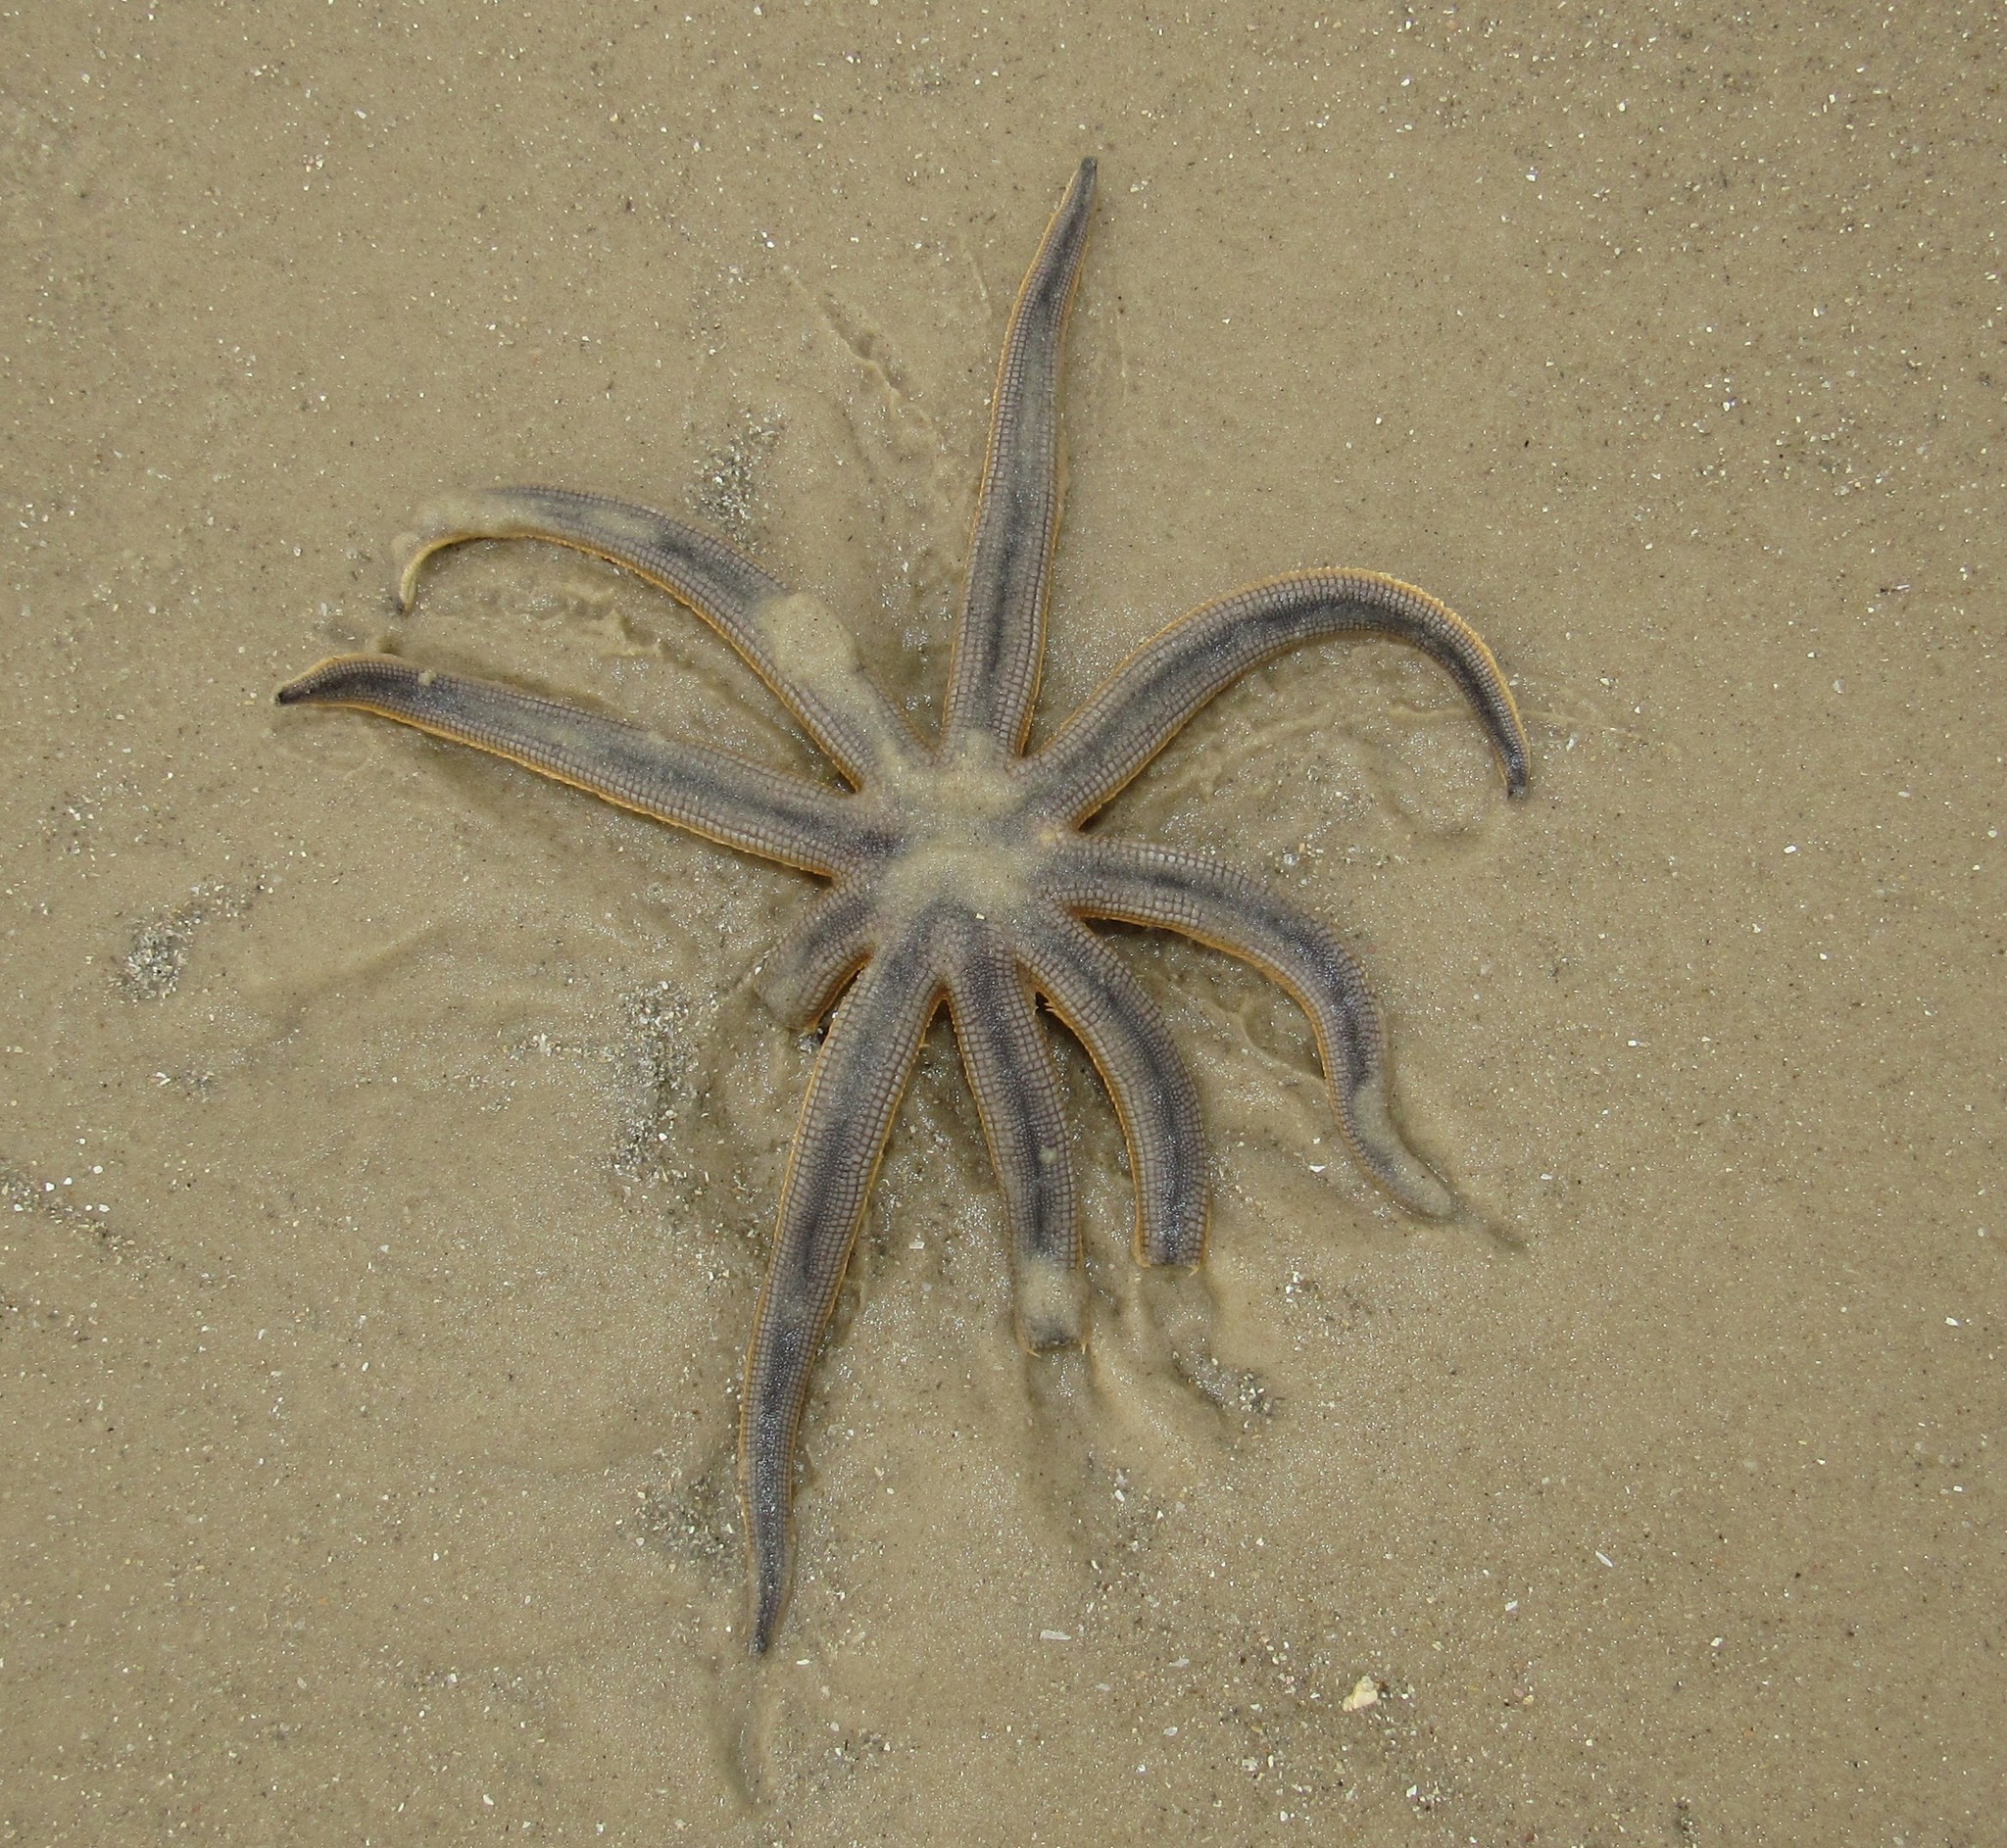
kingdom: Animalia
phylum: Echinodermata
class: Asteroidea
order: Paxillosida
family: Luidiidae
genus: Luidia
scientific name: Luidia senegalensis
